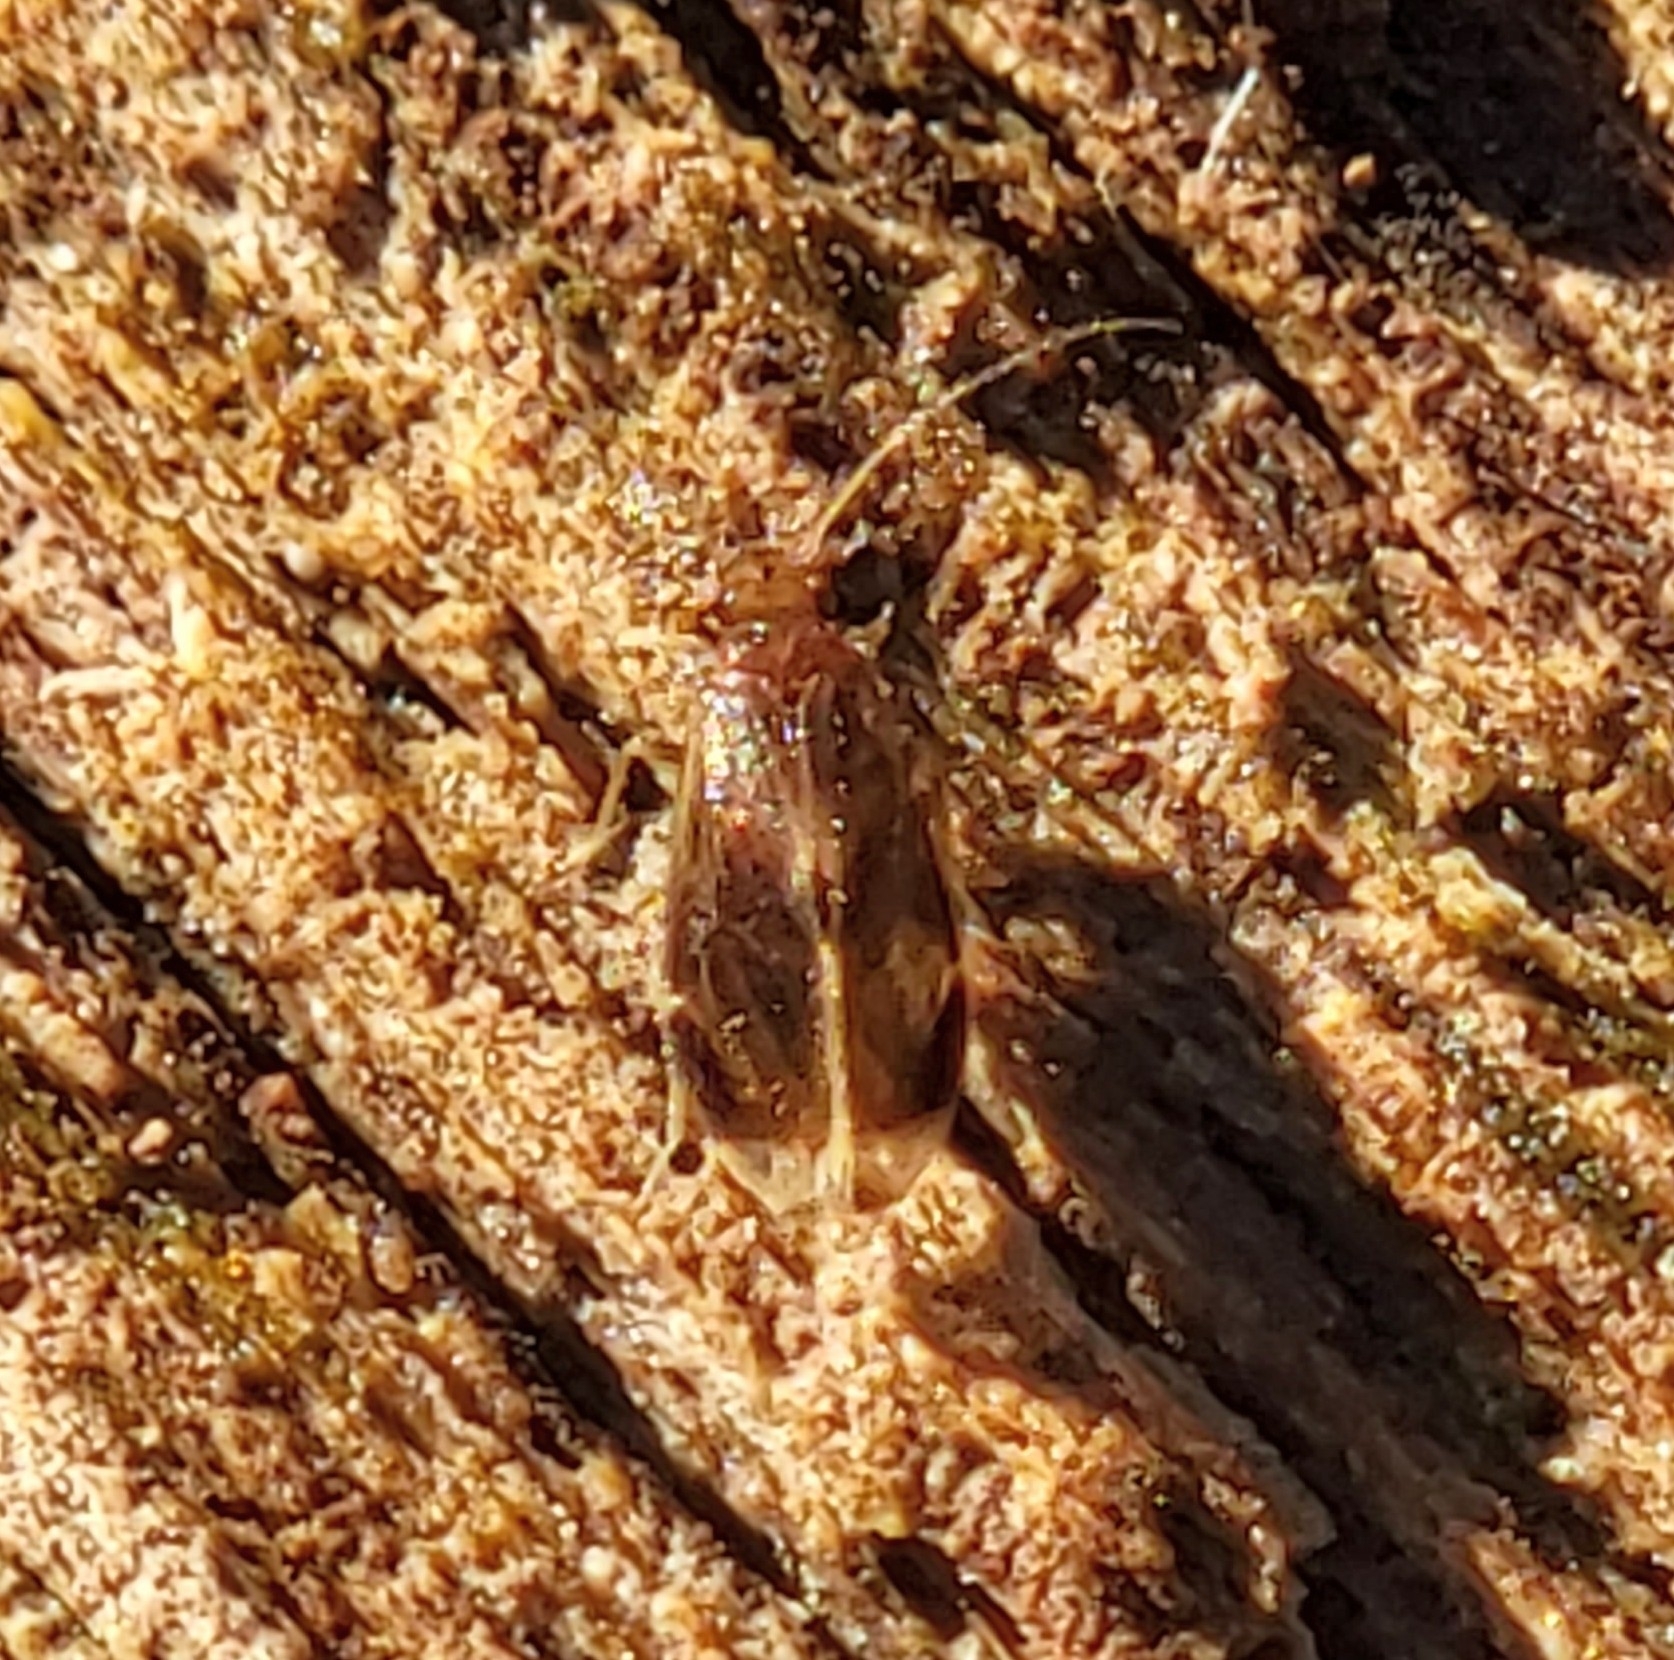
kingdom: Animalia
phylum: Arthropoda
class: Insecta
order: Psocodea
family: Amphipsocidae
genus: Polypsocus
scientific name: Polypsocus corruptus
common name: Corrupt barklouse
